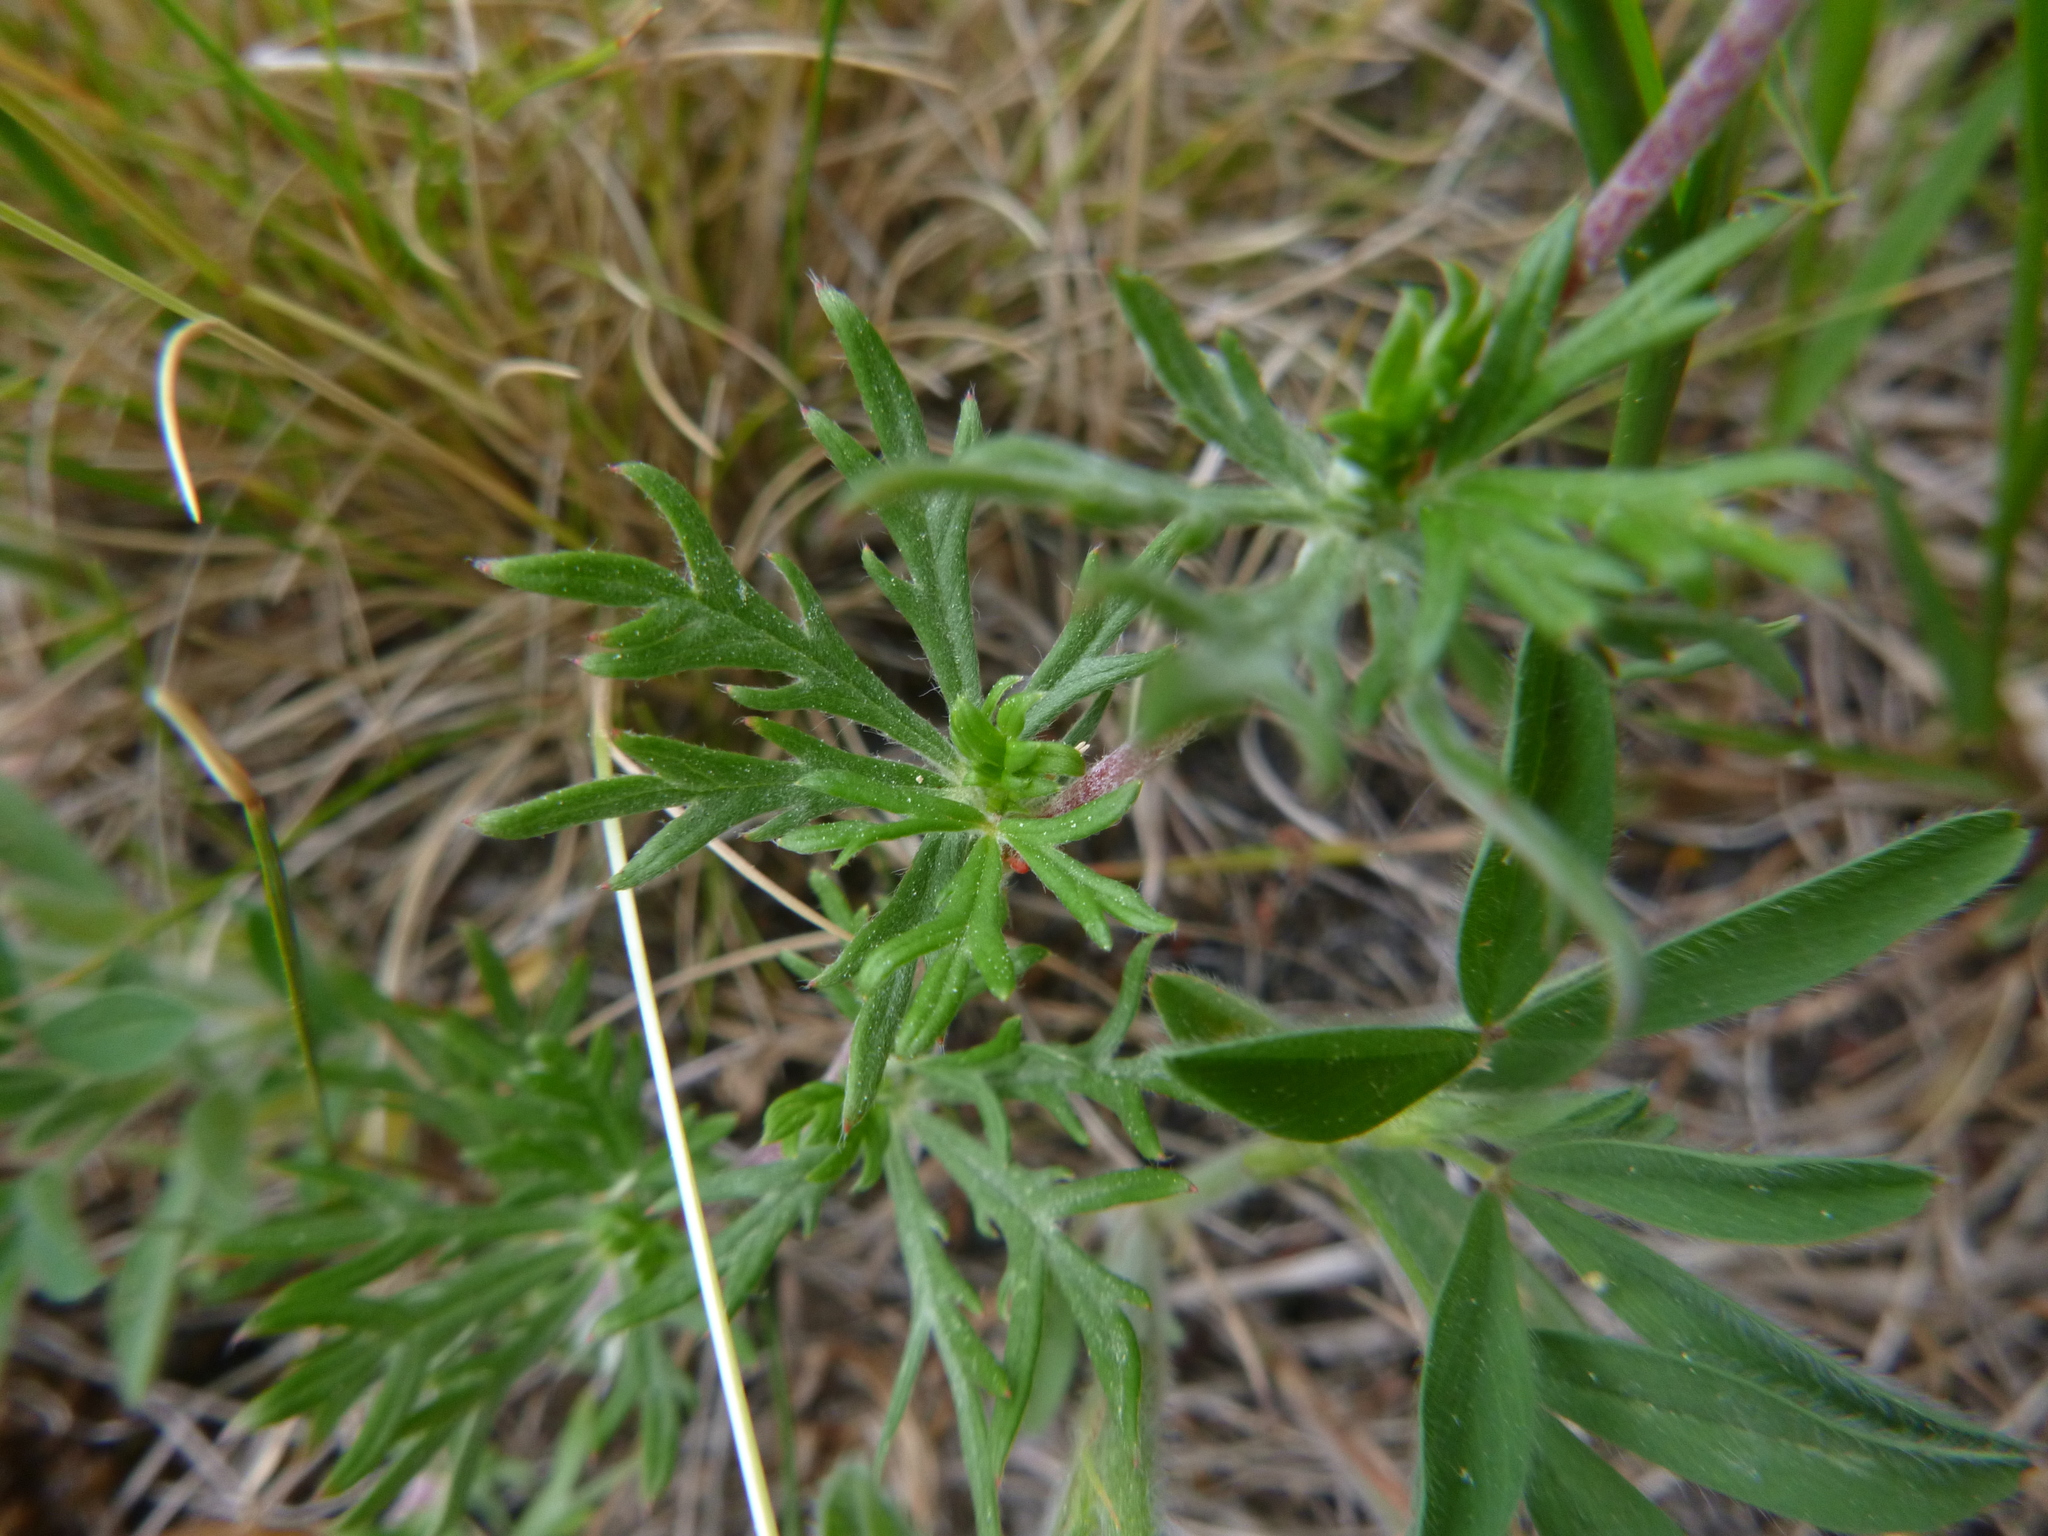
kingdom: Plantae
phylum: Tracheophyta
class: Magnoliopsida
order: Rosales
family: Rosaceae
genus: Potentilla
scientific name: Potentilla argentea
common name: Hoary cinquefoil
